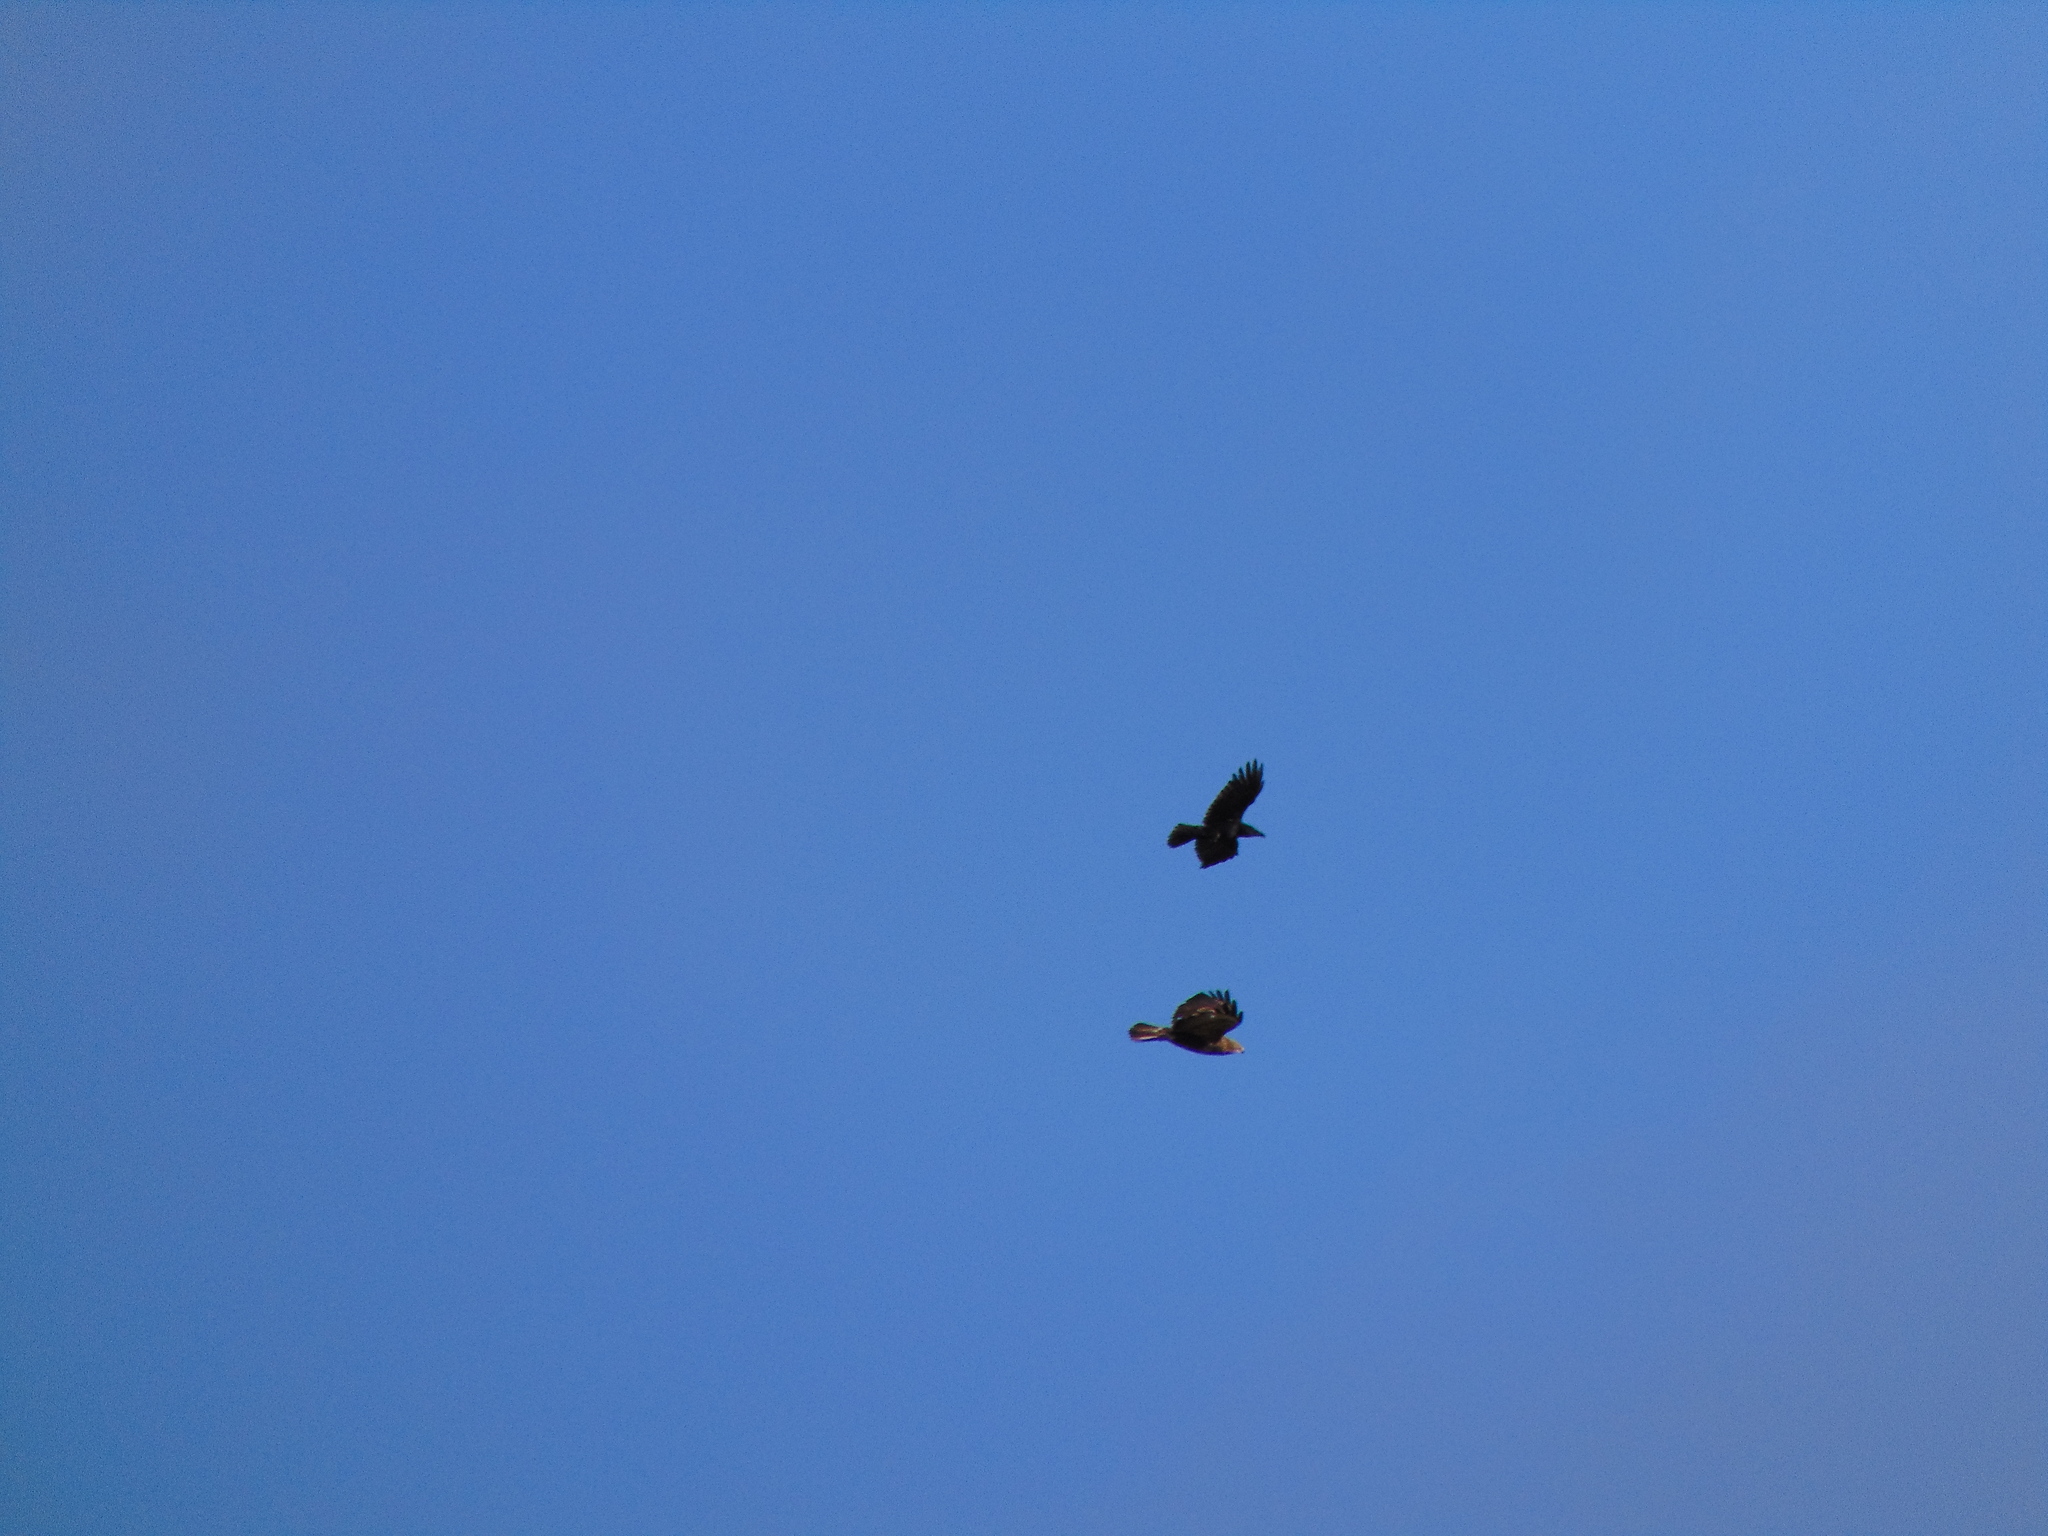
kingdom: Animalia
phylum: Chordata
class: Aves
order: Accipitriformes
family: Accipitridae
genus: Buteo
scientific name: Buteo buteo
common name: Common buzzard
